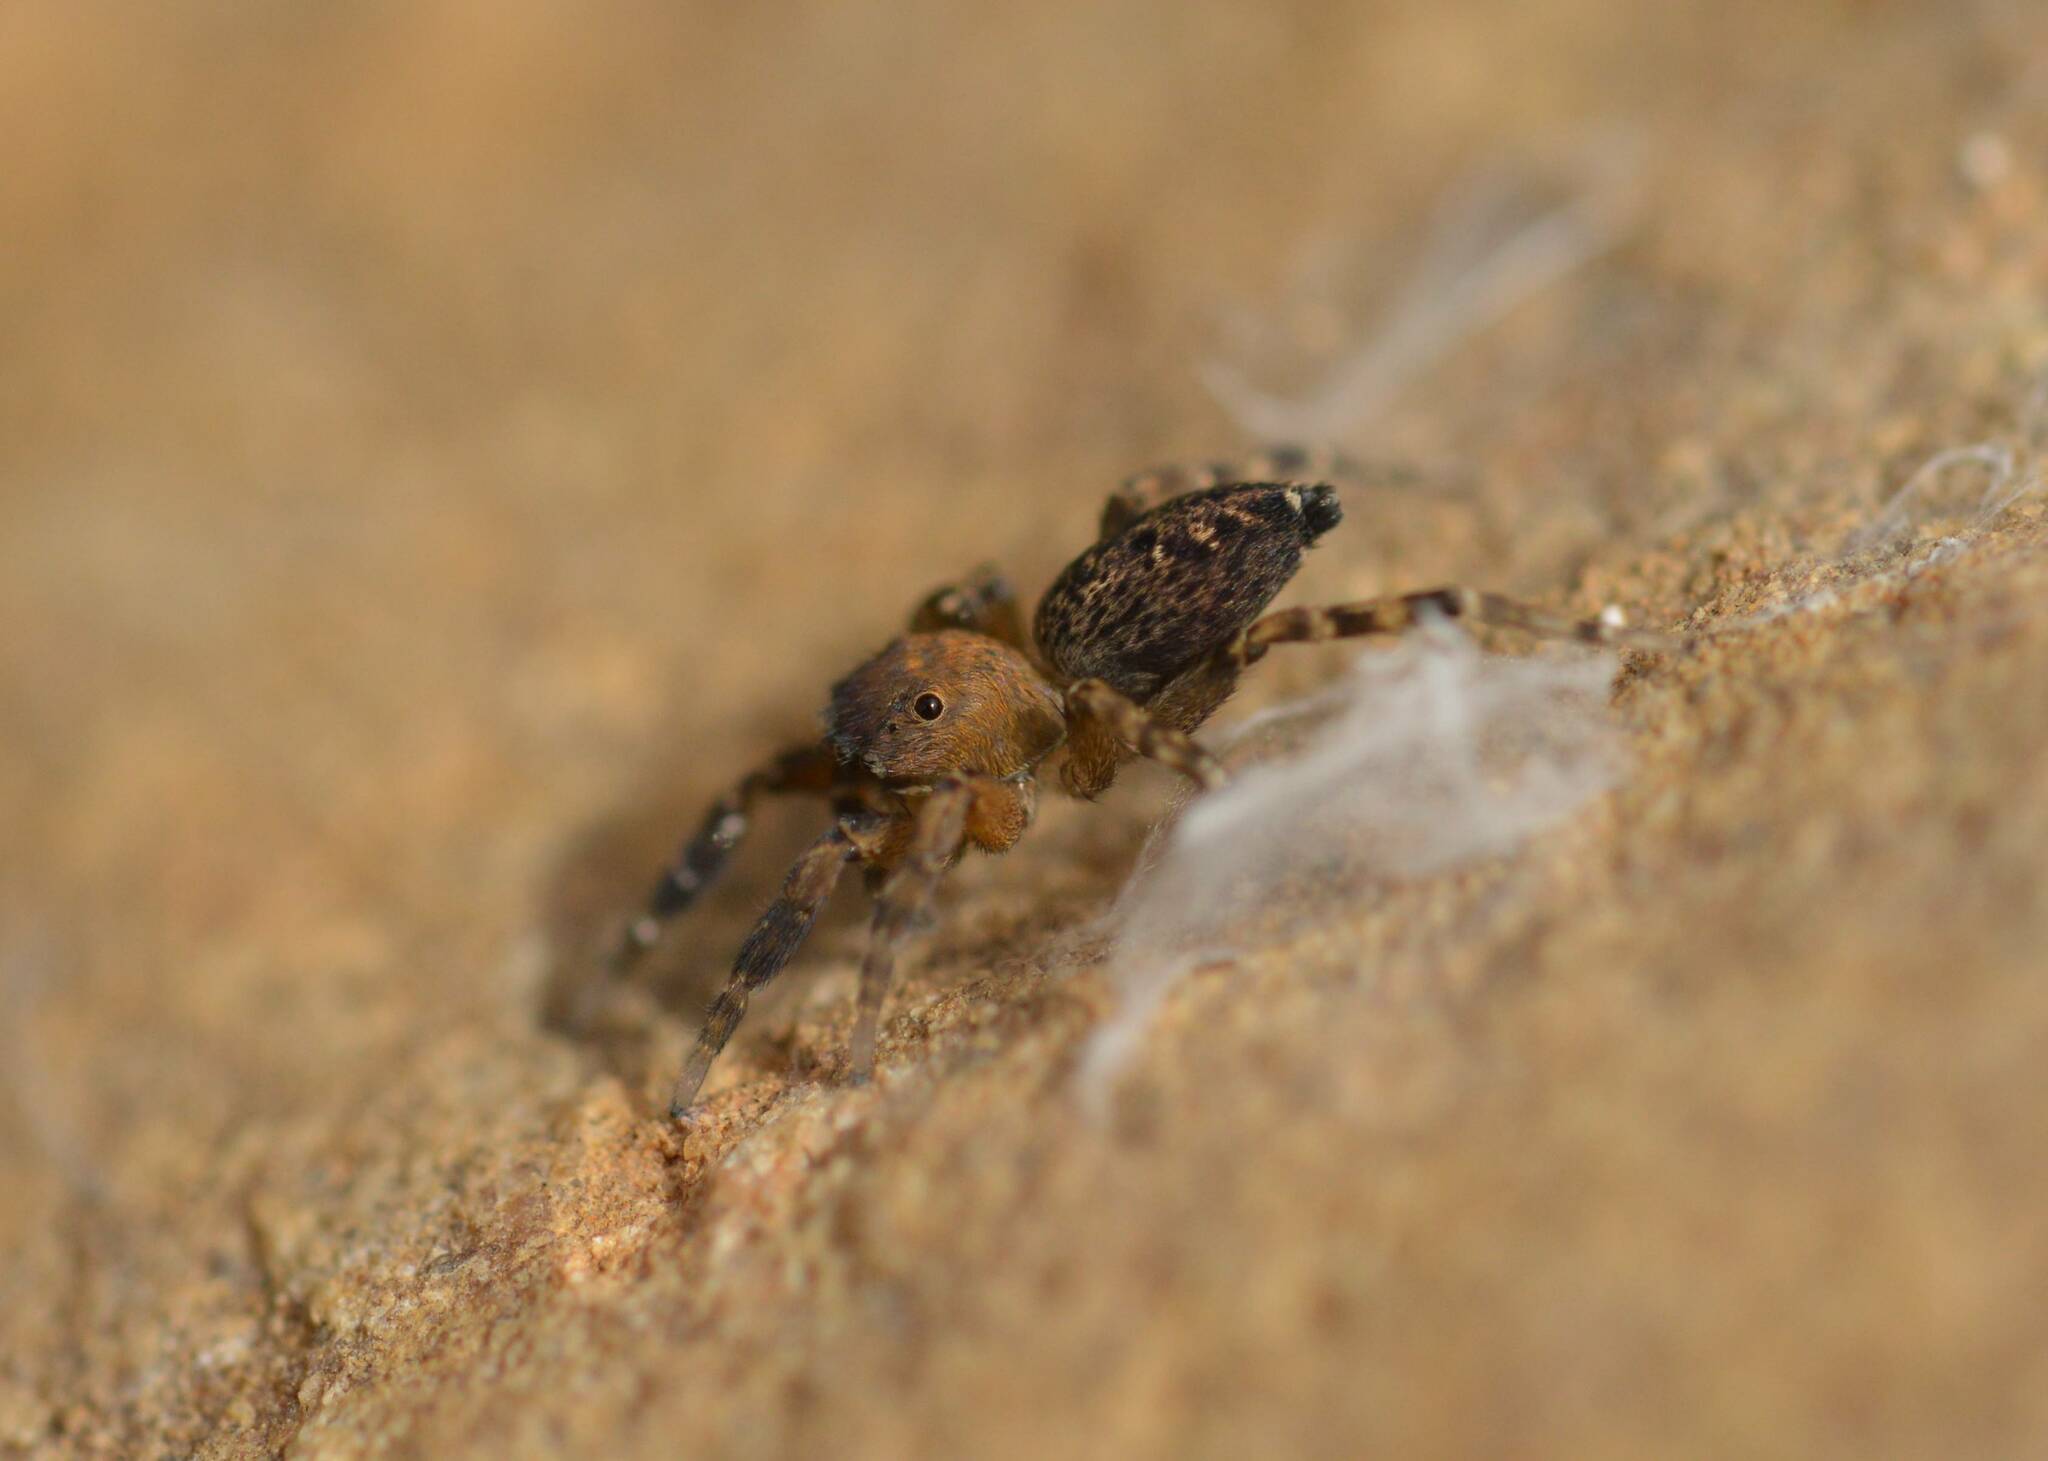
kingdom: Animalia
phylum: Arthropoda
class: Arachnida
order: Araneae
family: Salticidae
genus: Cyrba
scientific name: Cyrba algerina
